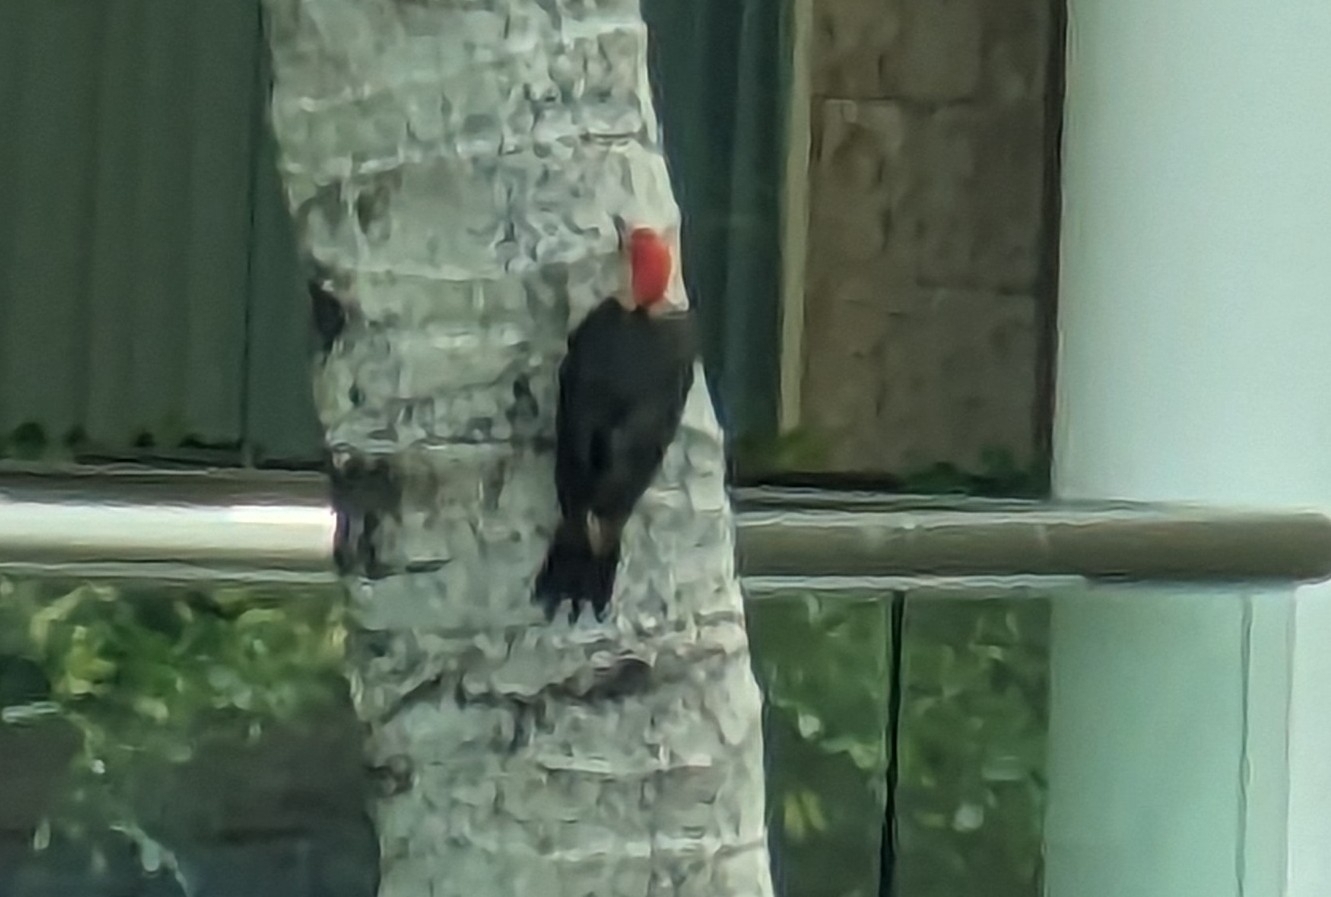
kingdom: Animalia
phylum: Chordata
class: Aves
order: Piciformes
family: Picidae
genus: Melanerpes
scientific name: Melanerpes pygmaeus
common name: Yucatan woodpecker
